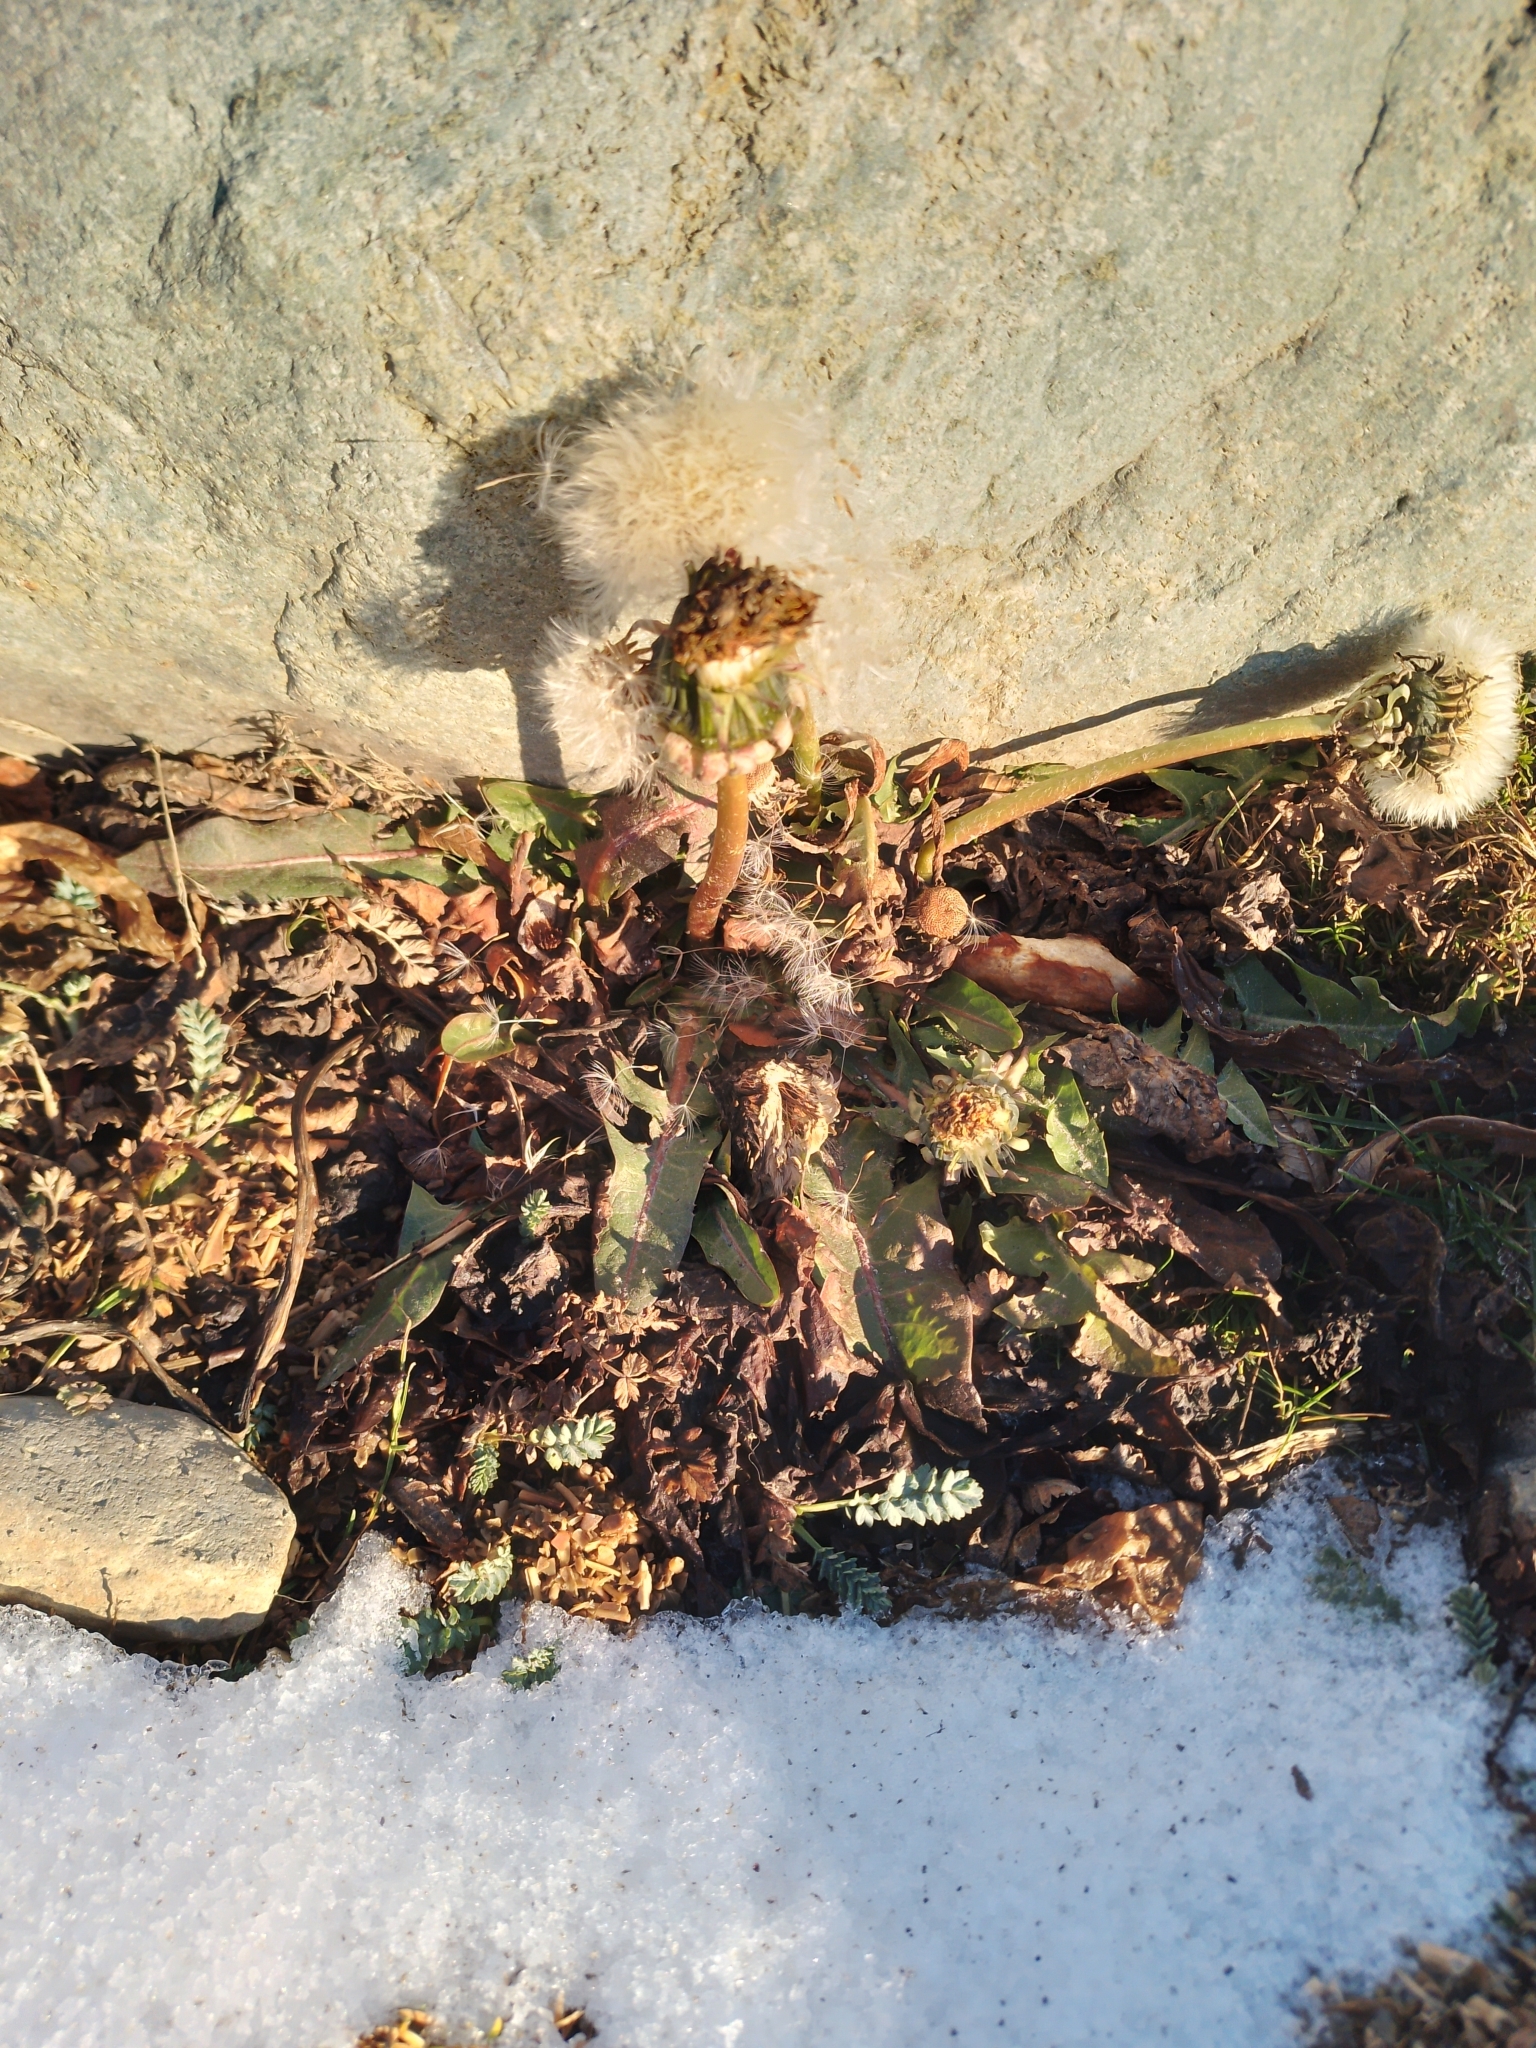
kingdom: Plantae
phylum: Tracheophyta
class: Magnoliopsida
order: Asterales
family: Asteraceae
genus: Taraxacum
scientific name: Taraxacum officinale
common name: Common dandelion
